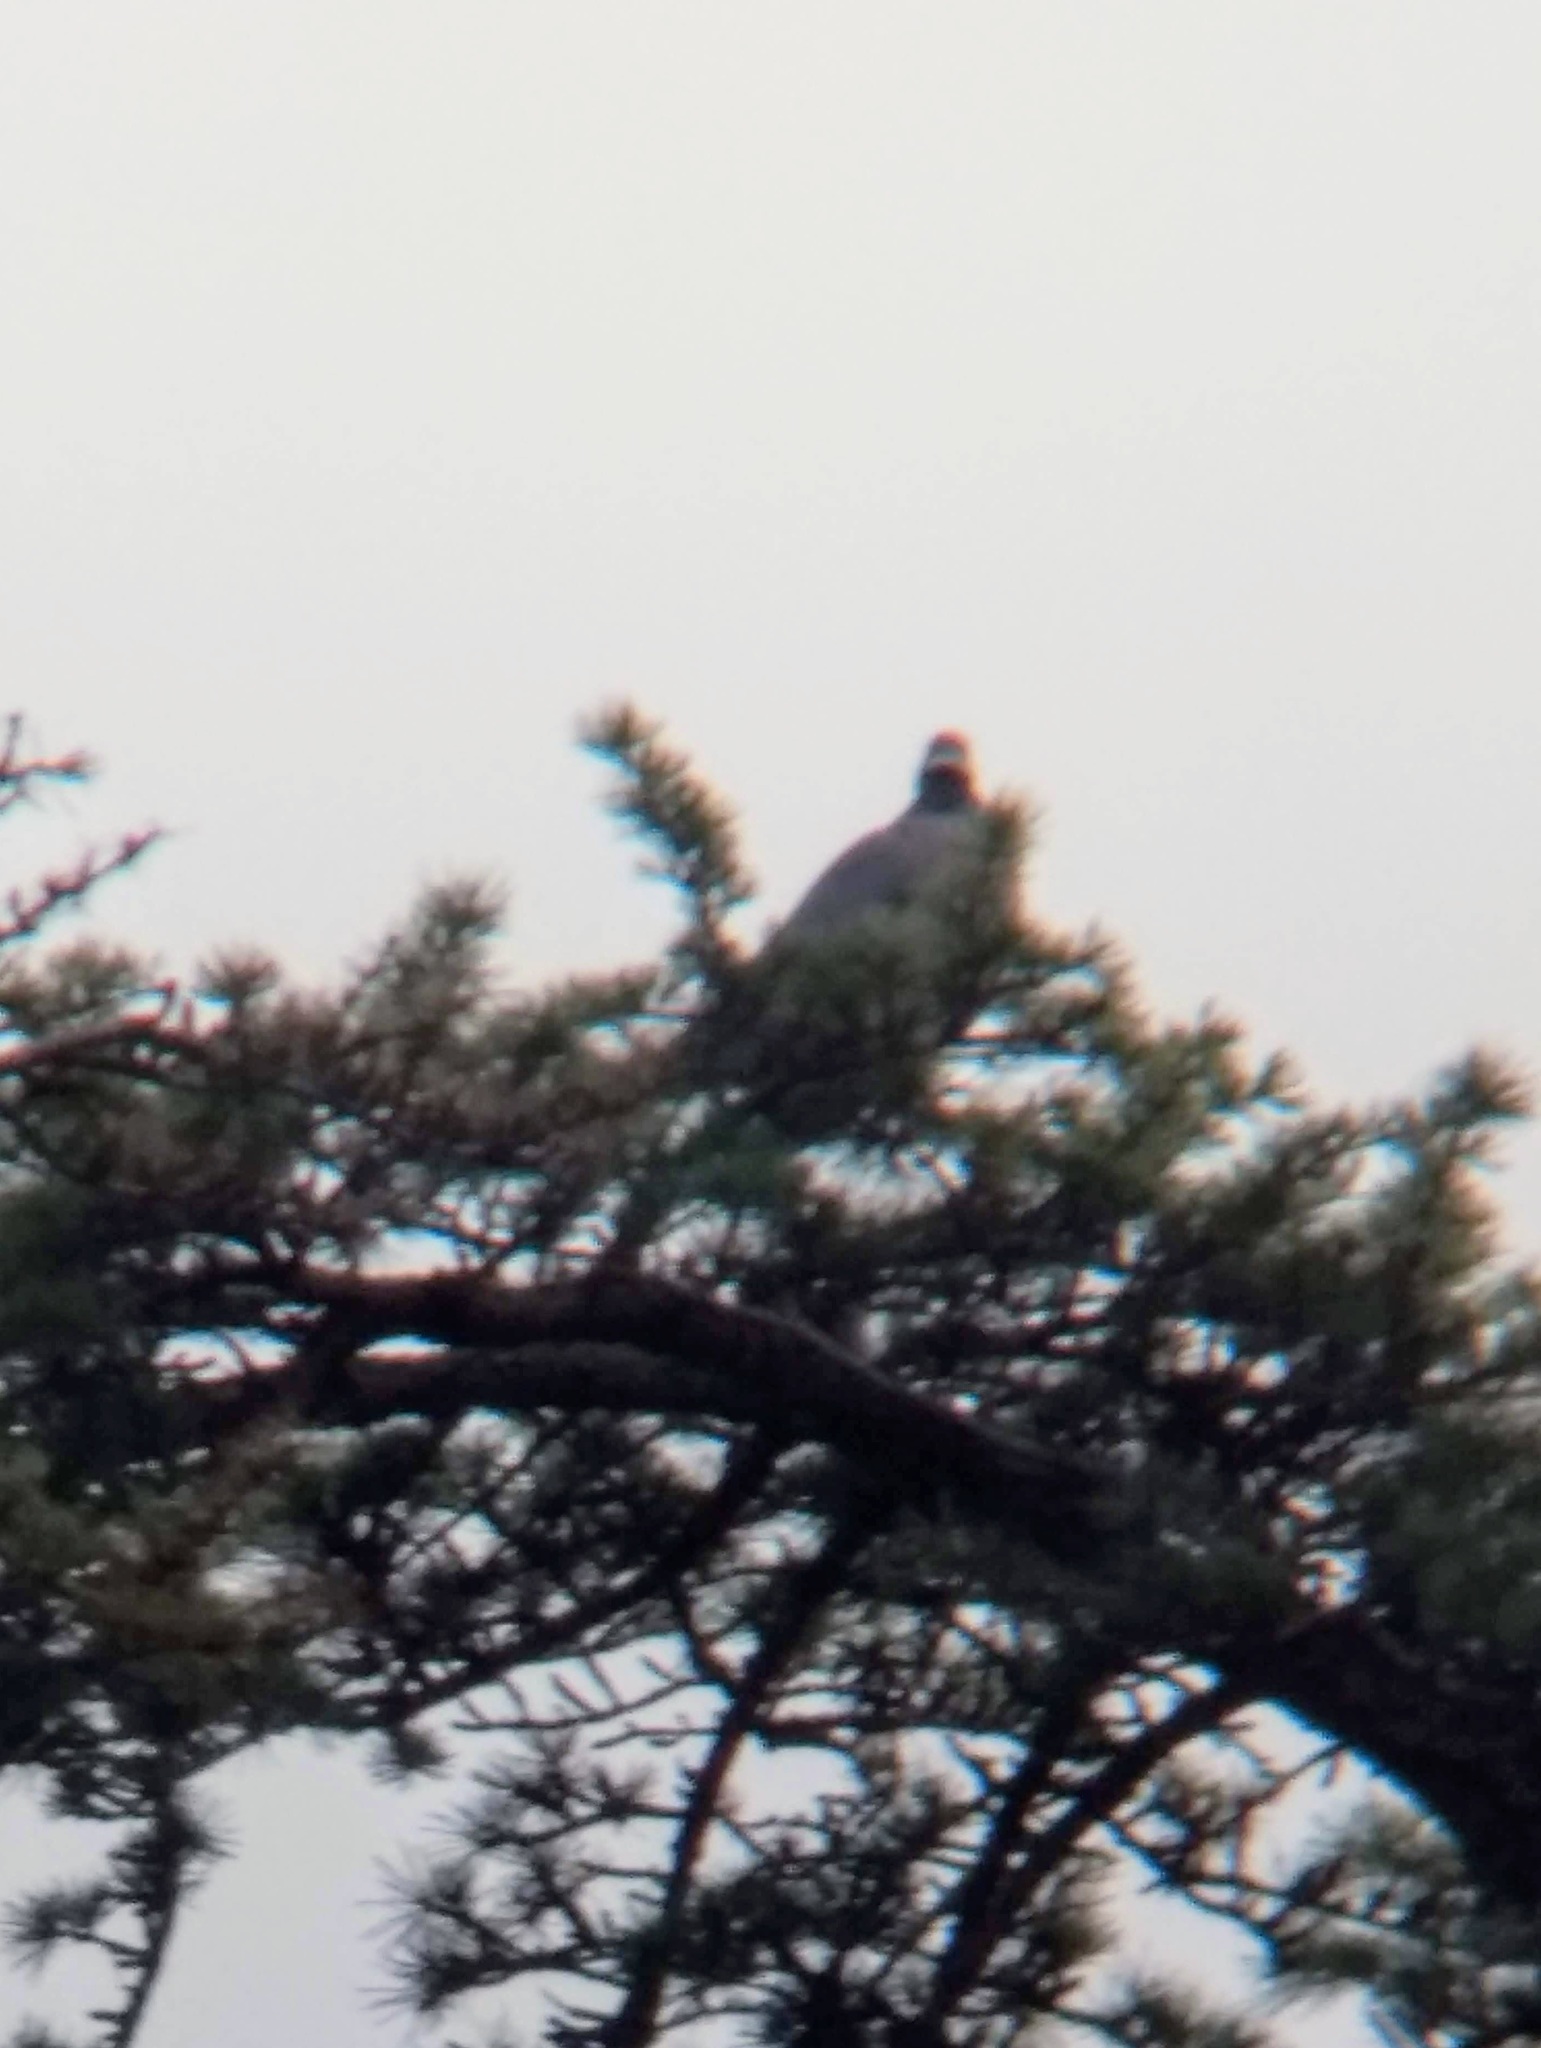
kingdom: Animalia
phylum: Chordata
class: Aves
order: Columbiformes
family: Columbidae
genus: Patagioenas
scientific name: Patagioenas fasciata
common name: Band-tailed pigeon
